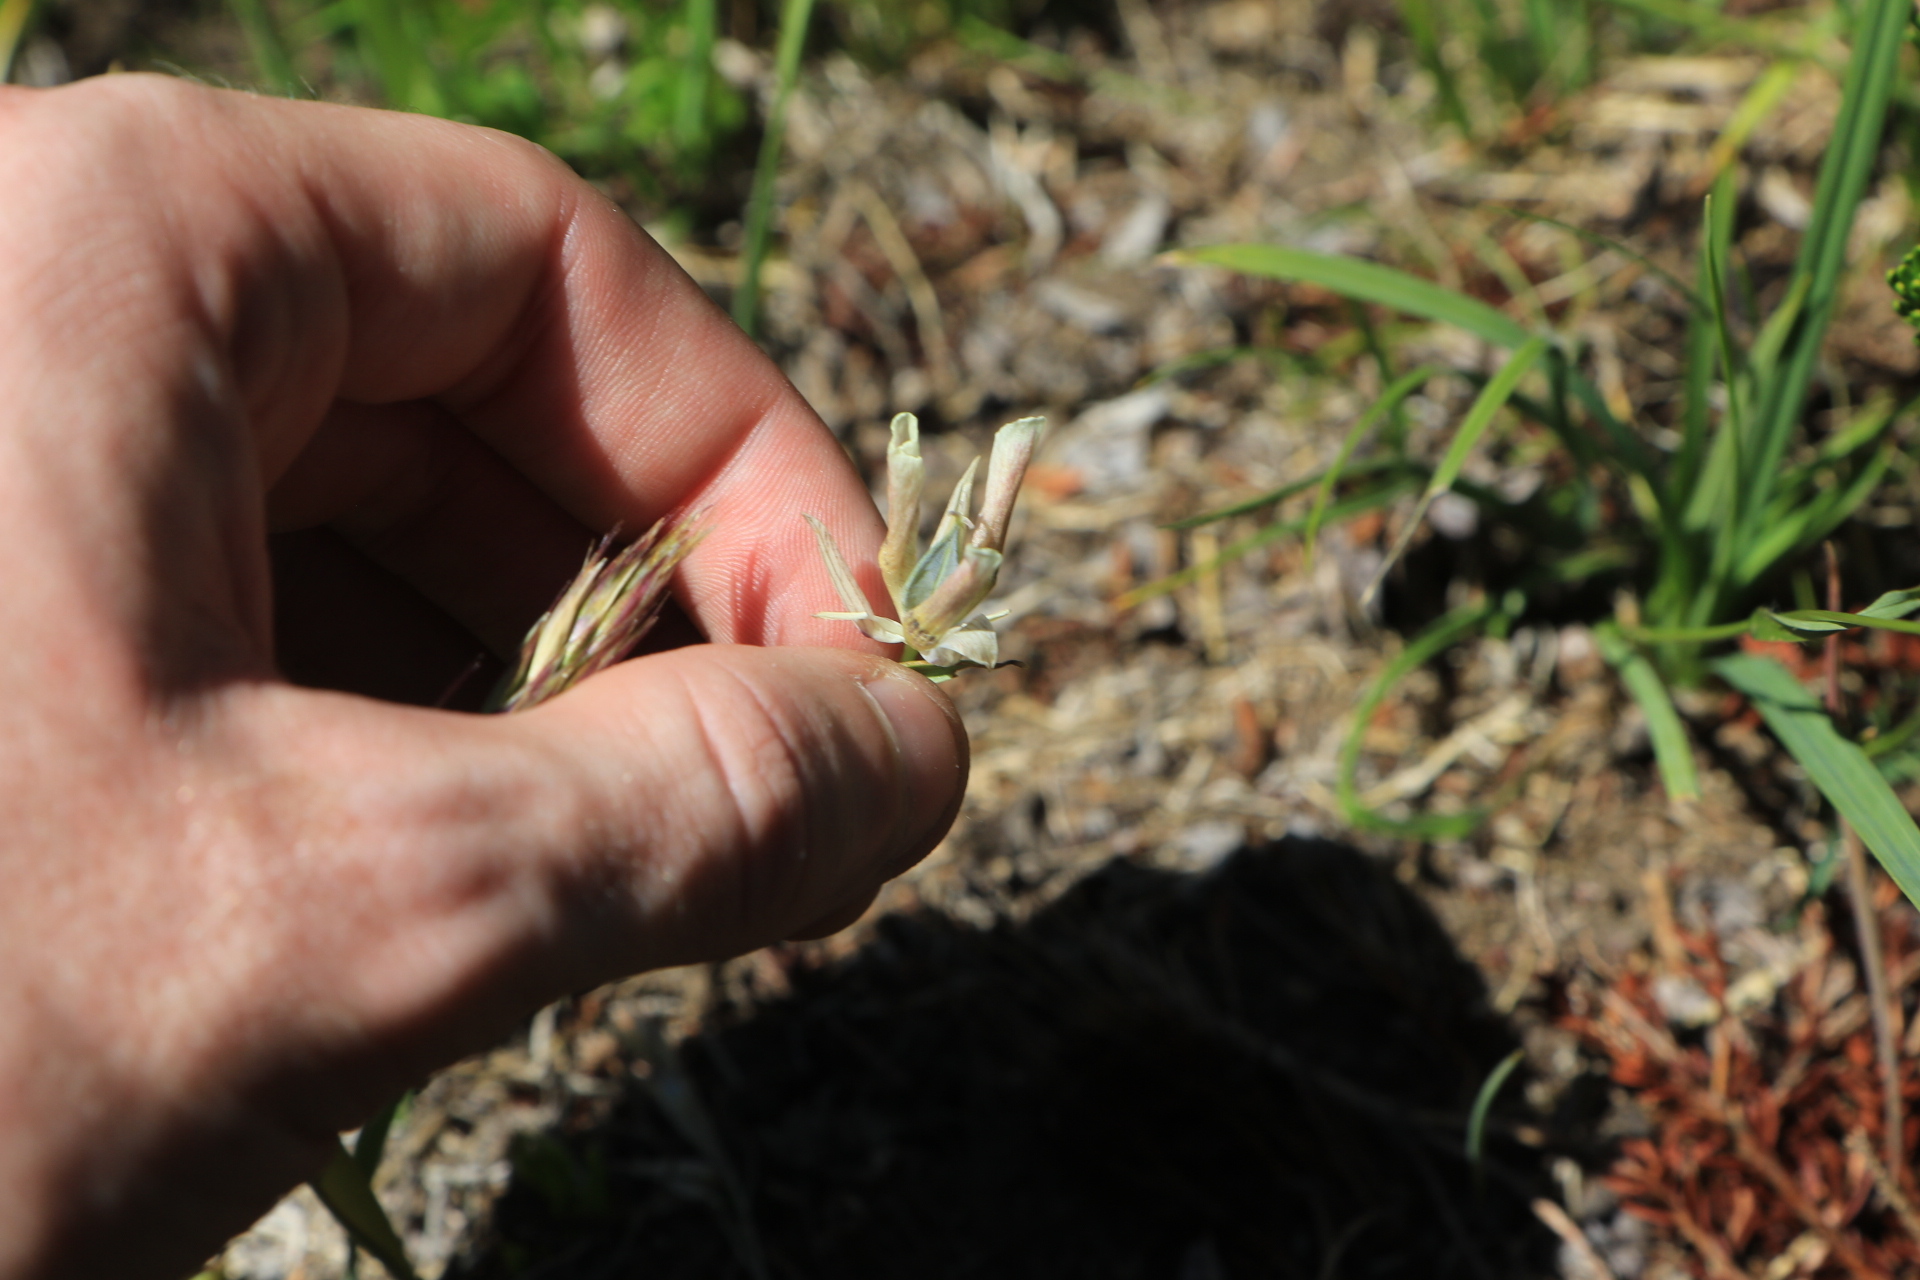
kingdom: Plantae
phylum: Tracheophyta
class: Liliopsida
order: Liliales
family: Liliaceae
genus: Calochortus
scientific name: Calochortus subalpinus
